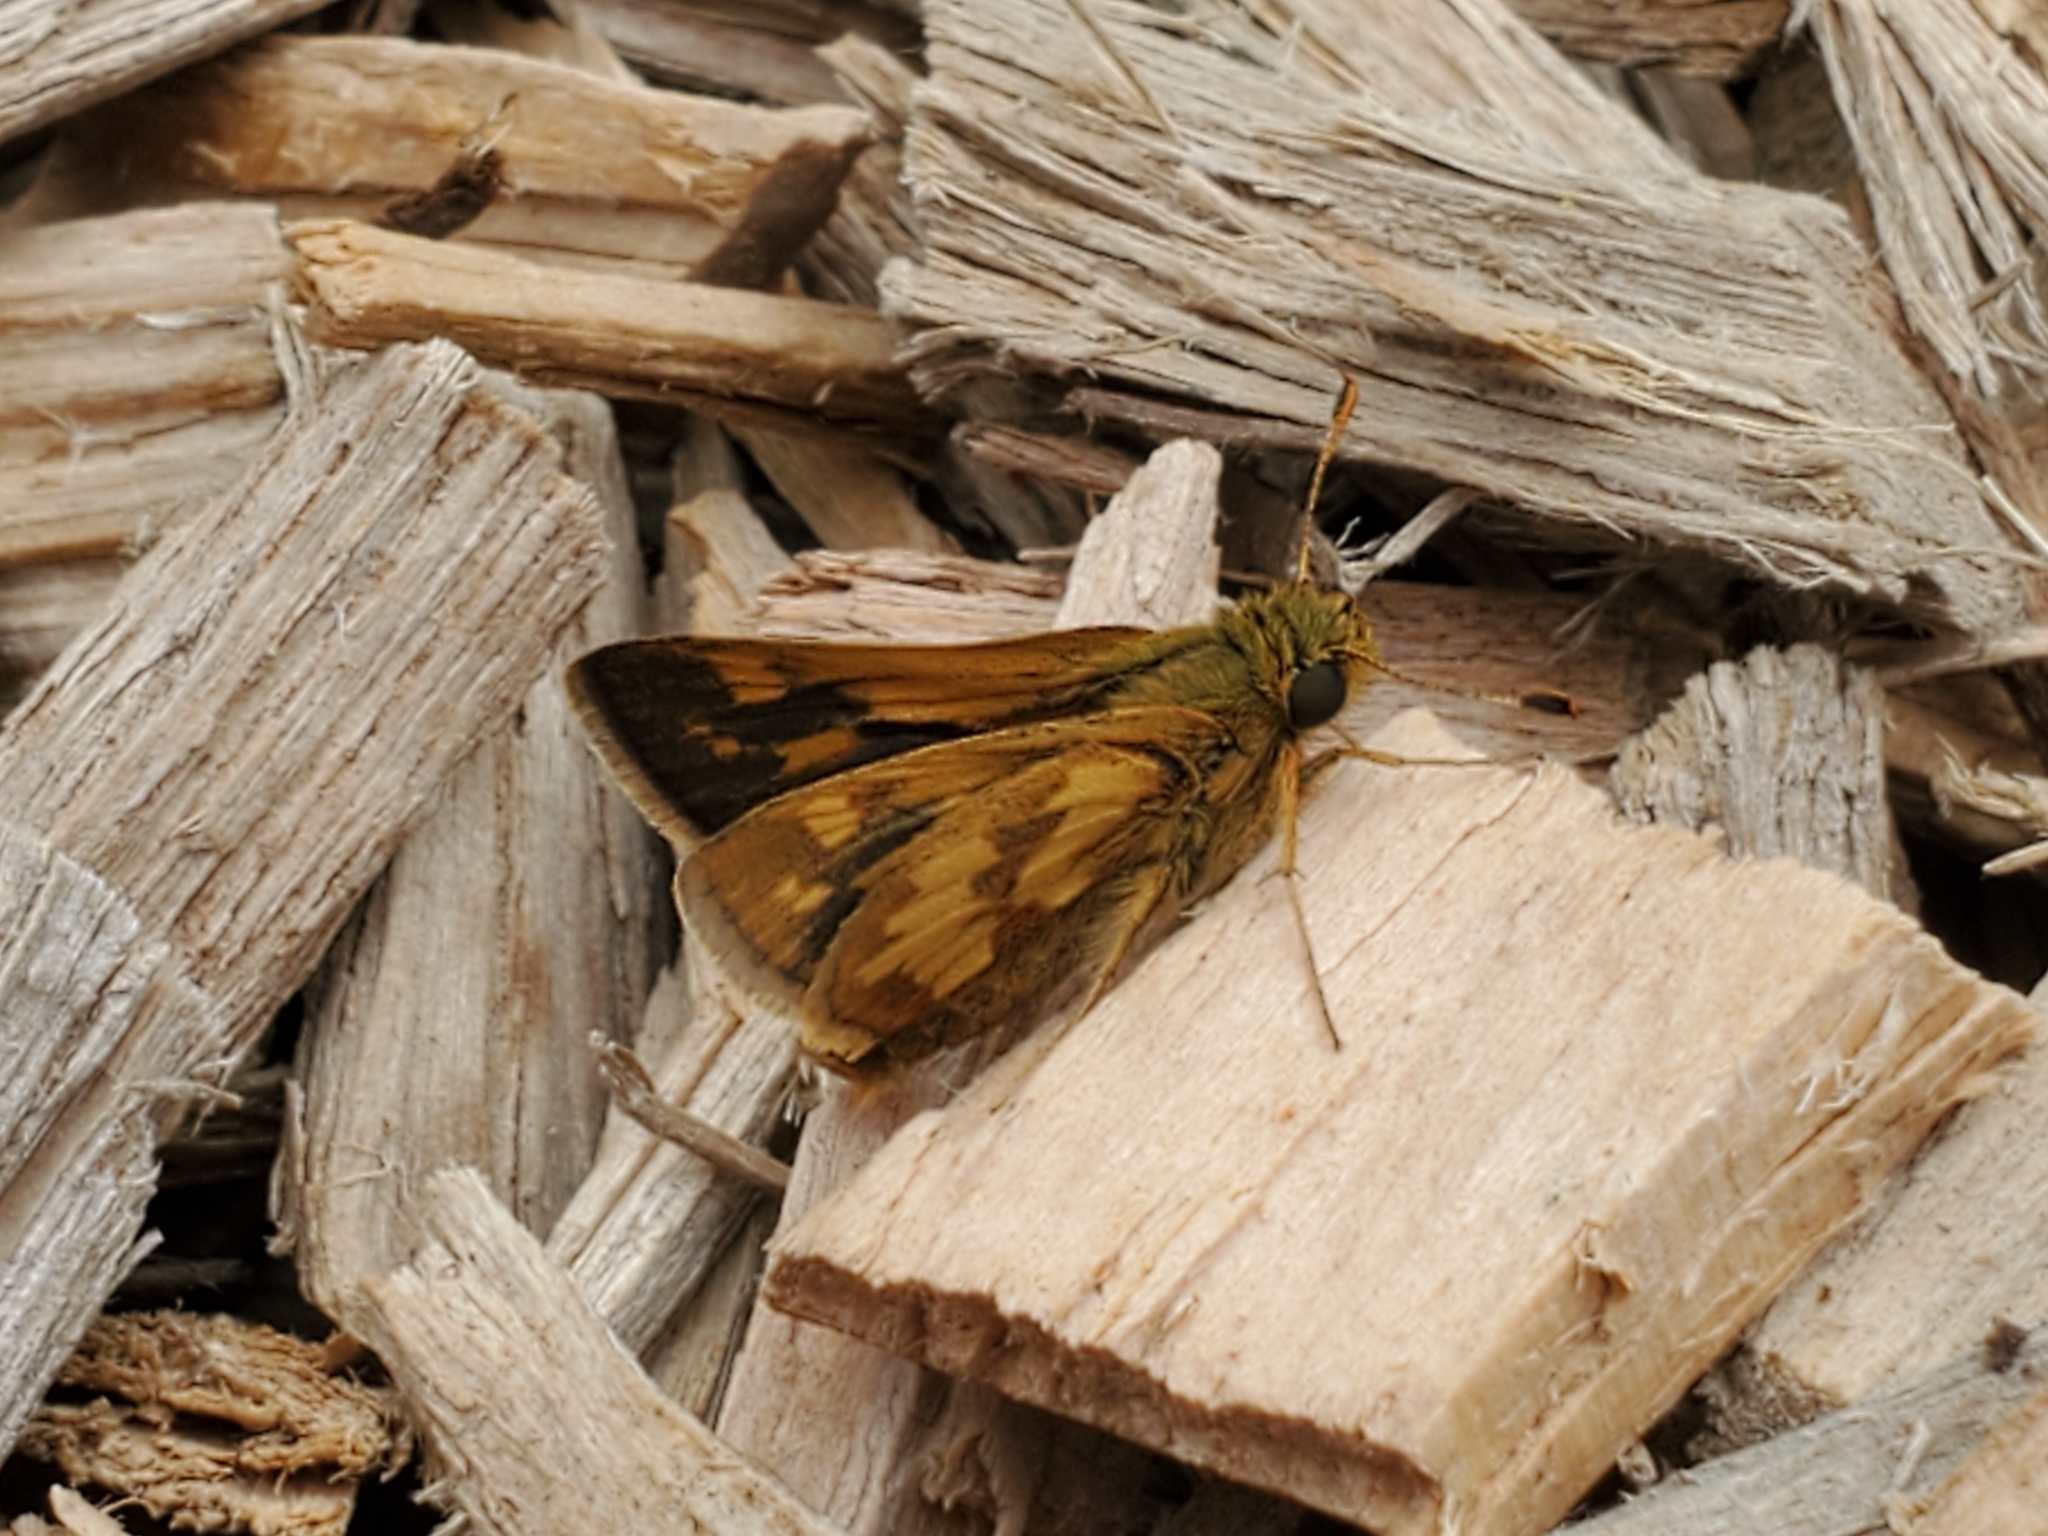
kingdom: Animalia
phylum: Arthropoda
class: Insecta
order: Lepidoptera
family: Hesperiidae
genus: Polites
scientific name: Polites coras
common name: Peck's skipper
